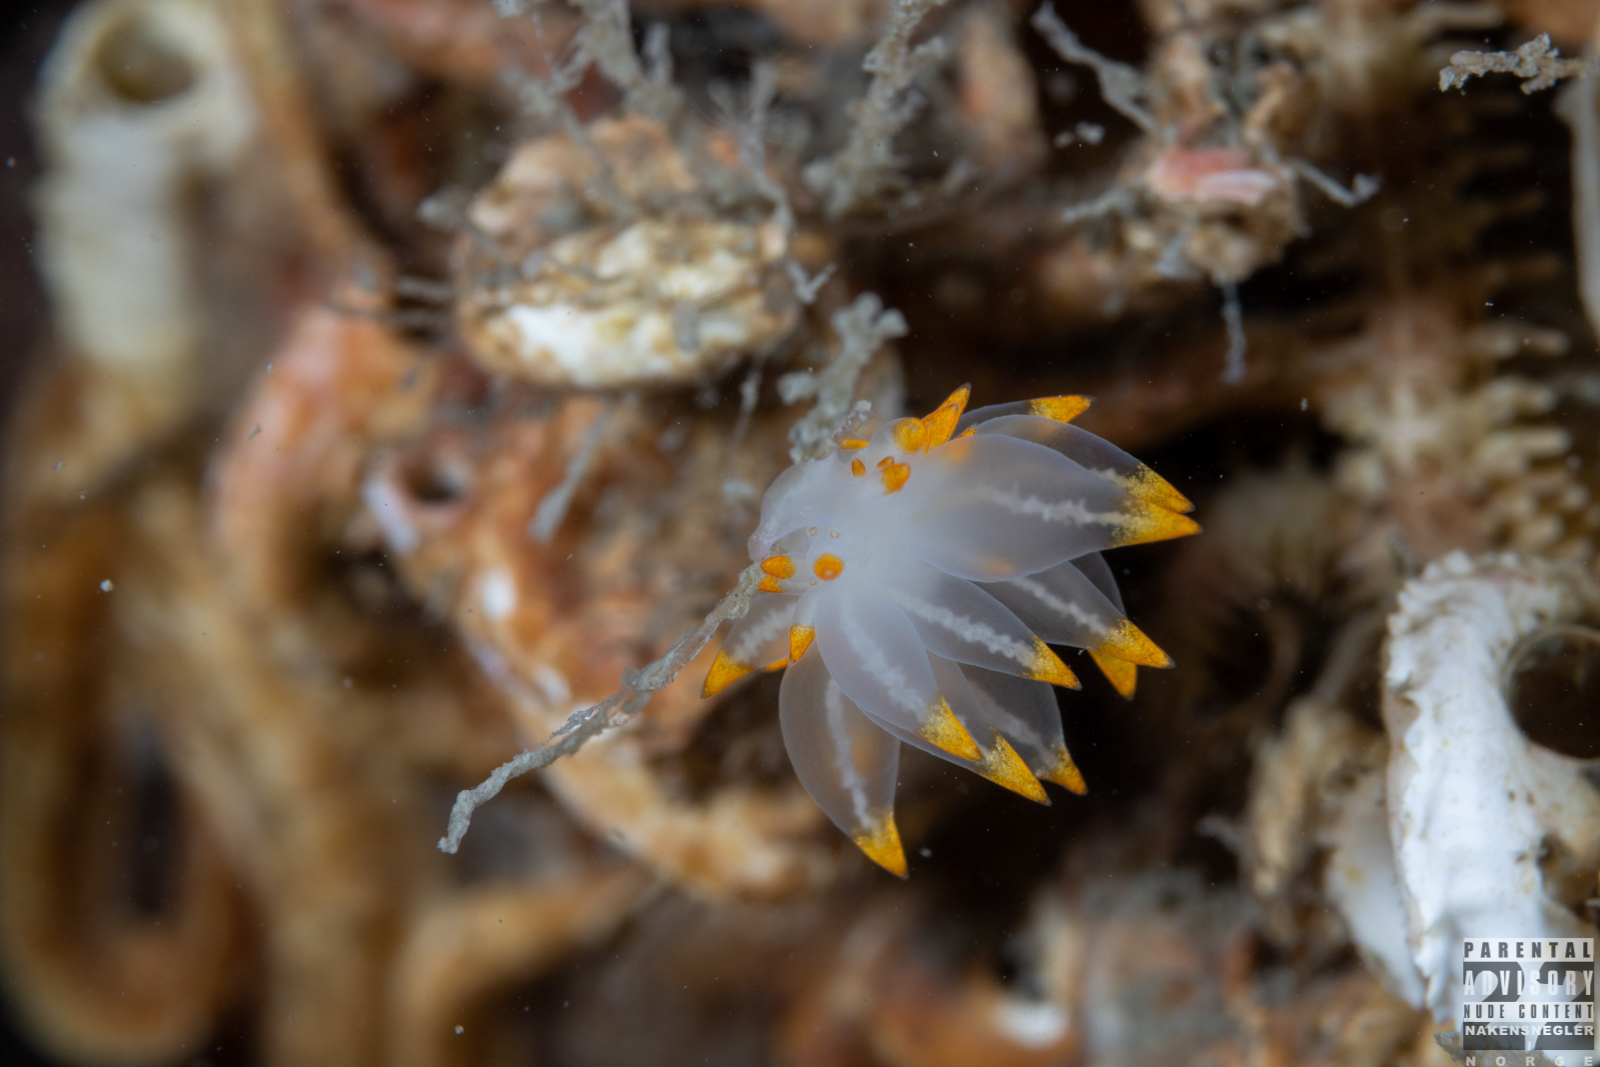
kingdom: Animalia
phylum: Mollusca
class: Gastropoda
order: Nudibranchia
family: Eubranchidae
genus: Amphorina
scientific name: Amphorina farrani
